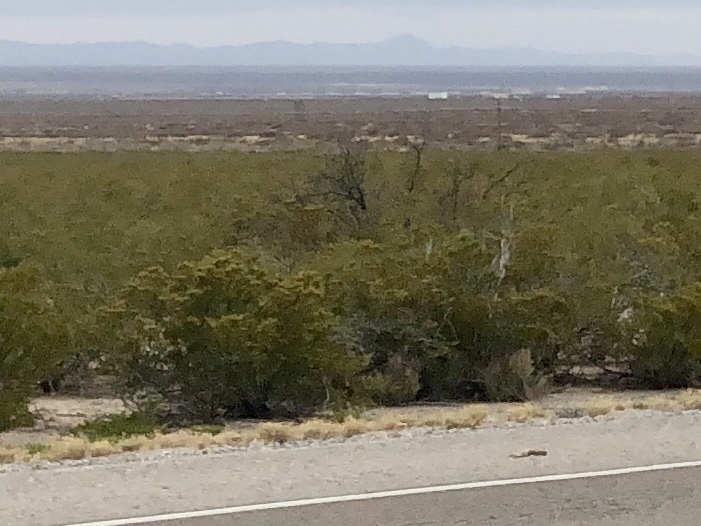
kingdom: Plantae
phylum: Tracheophyta
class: Magnoliopsida
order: Zygophyllales
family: Zygophyllaceae
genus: Larrea
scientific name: Larrea tridentata
